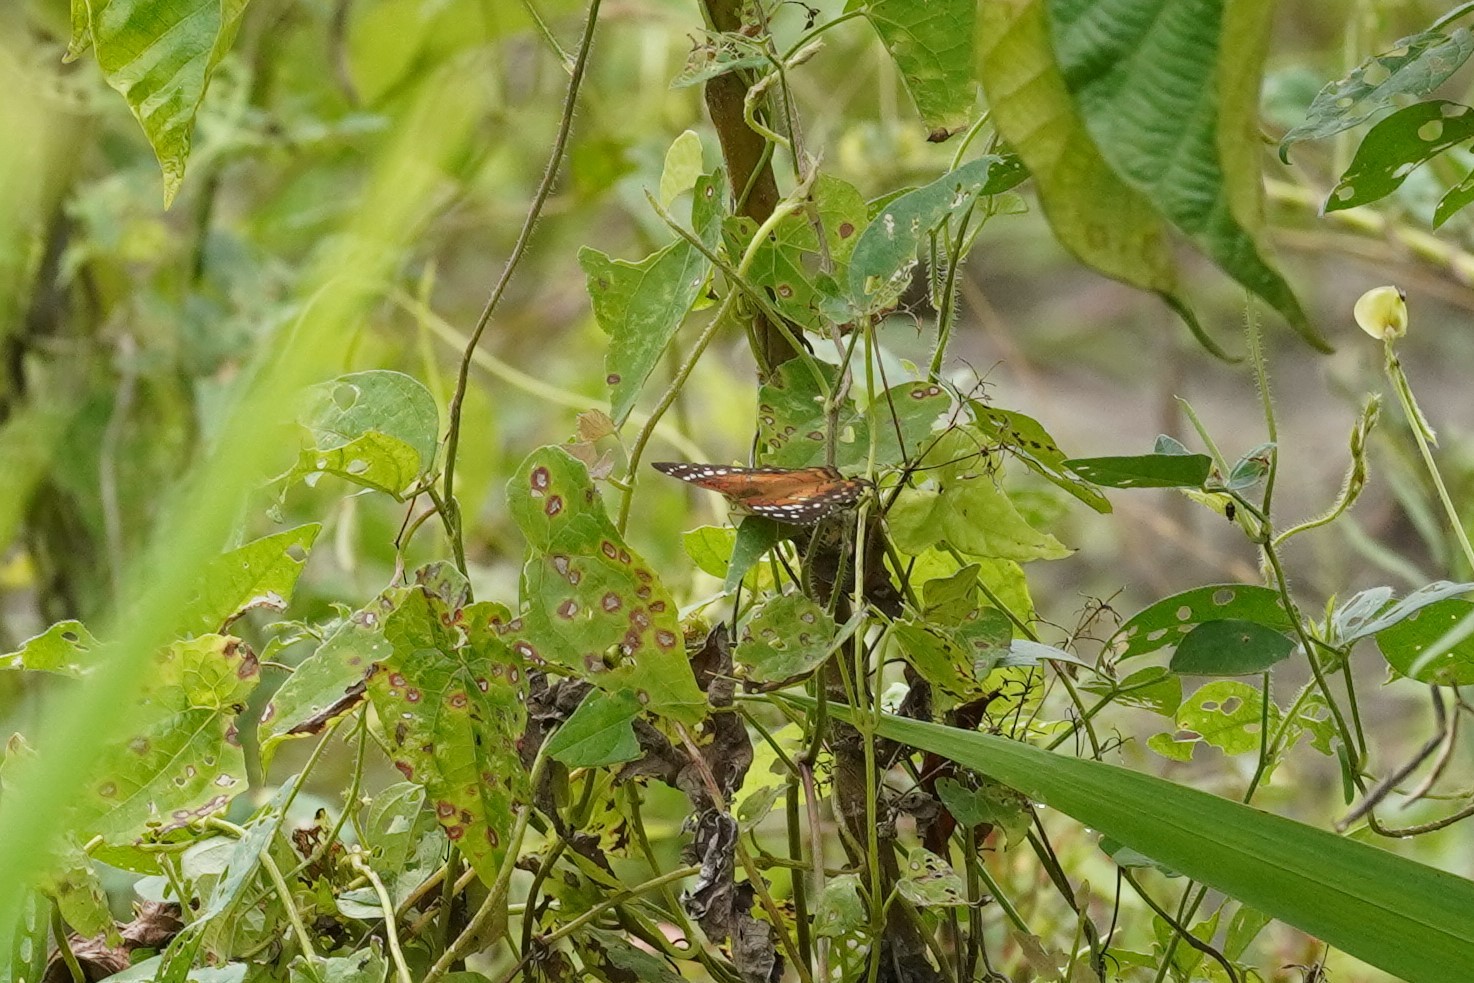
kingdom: Animalia
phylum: Arthropoda
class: Insecta
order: Lepidoptera
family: Nymphalidae
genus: Anartia
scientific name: Anartia amathea
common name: Red peacock
